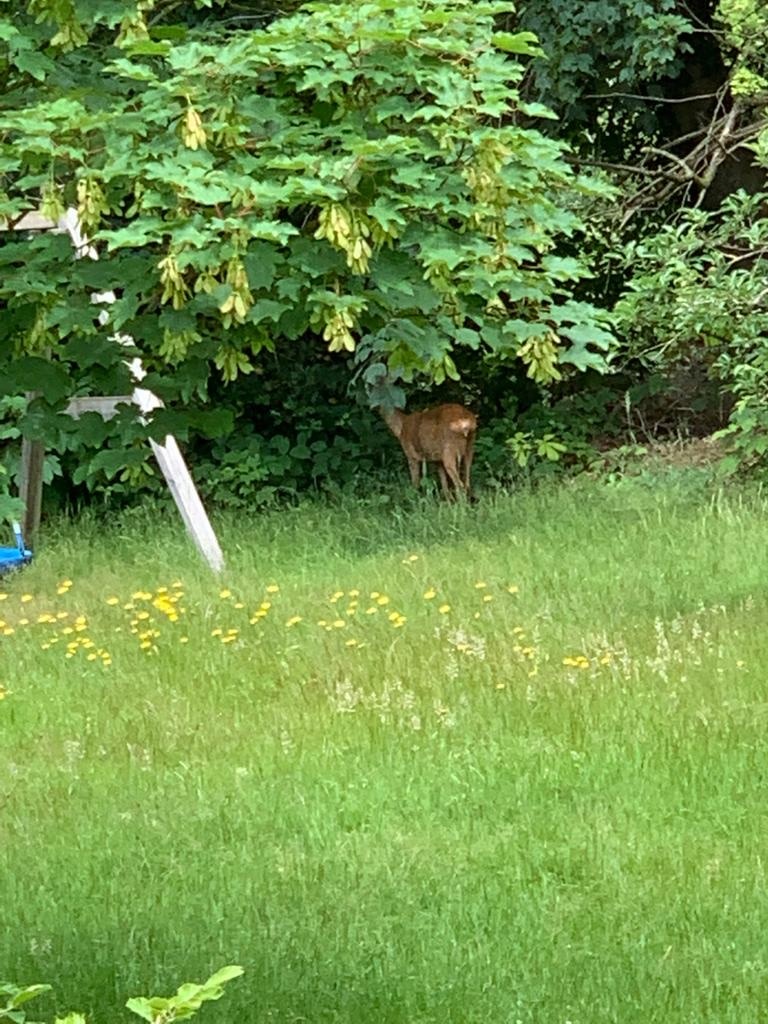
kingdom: Animalia
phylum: Chordata
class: Mammalia
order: Artiodactyla
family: Cervidae
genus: Capreolus
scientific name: Capreolus capreolus
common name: Western roe deer
